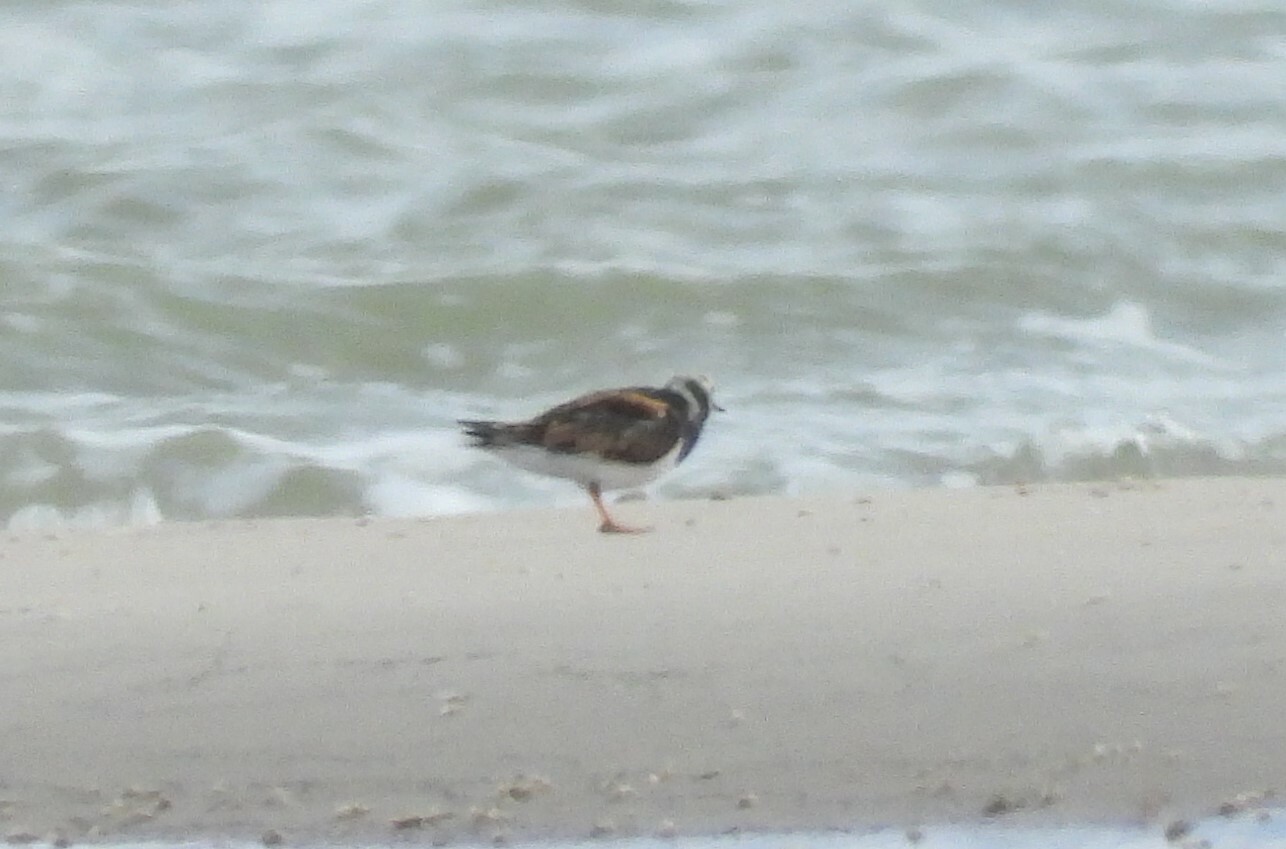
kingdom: Animalia
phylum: Chordata
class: Aves
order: Charadriiformes
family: Scolopacidae
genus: Arenaria
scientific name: Arenaria interpres
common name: Ruddy turnstone
